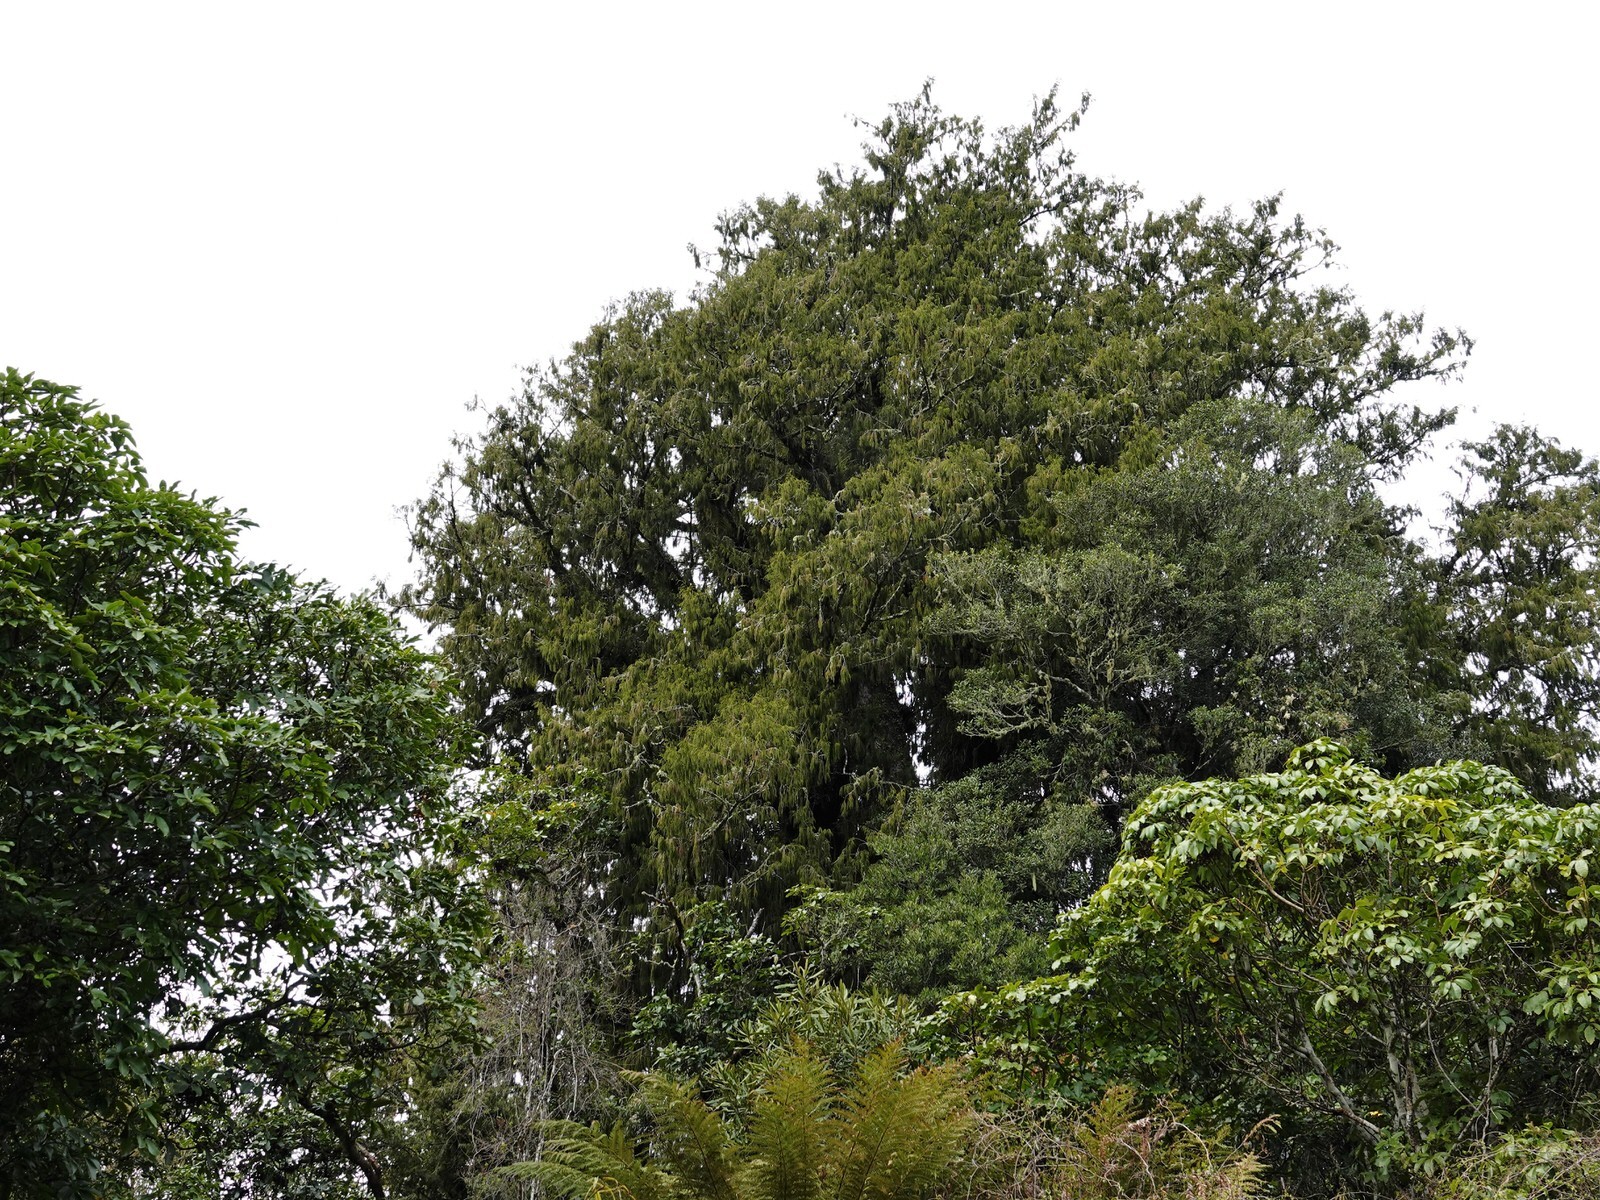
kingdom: Plantae
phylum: Tracheophyta
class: Pinopsida
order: Pinales
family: Podocarpaceae
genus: Dacrydium
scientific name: Dacrydium cupressinum
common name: Red pine
